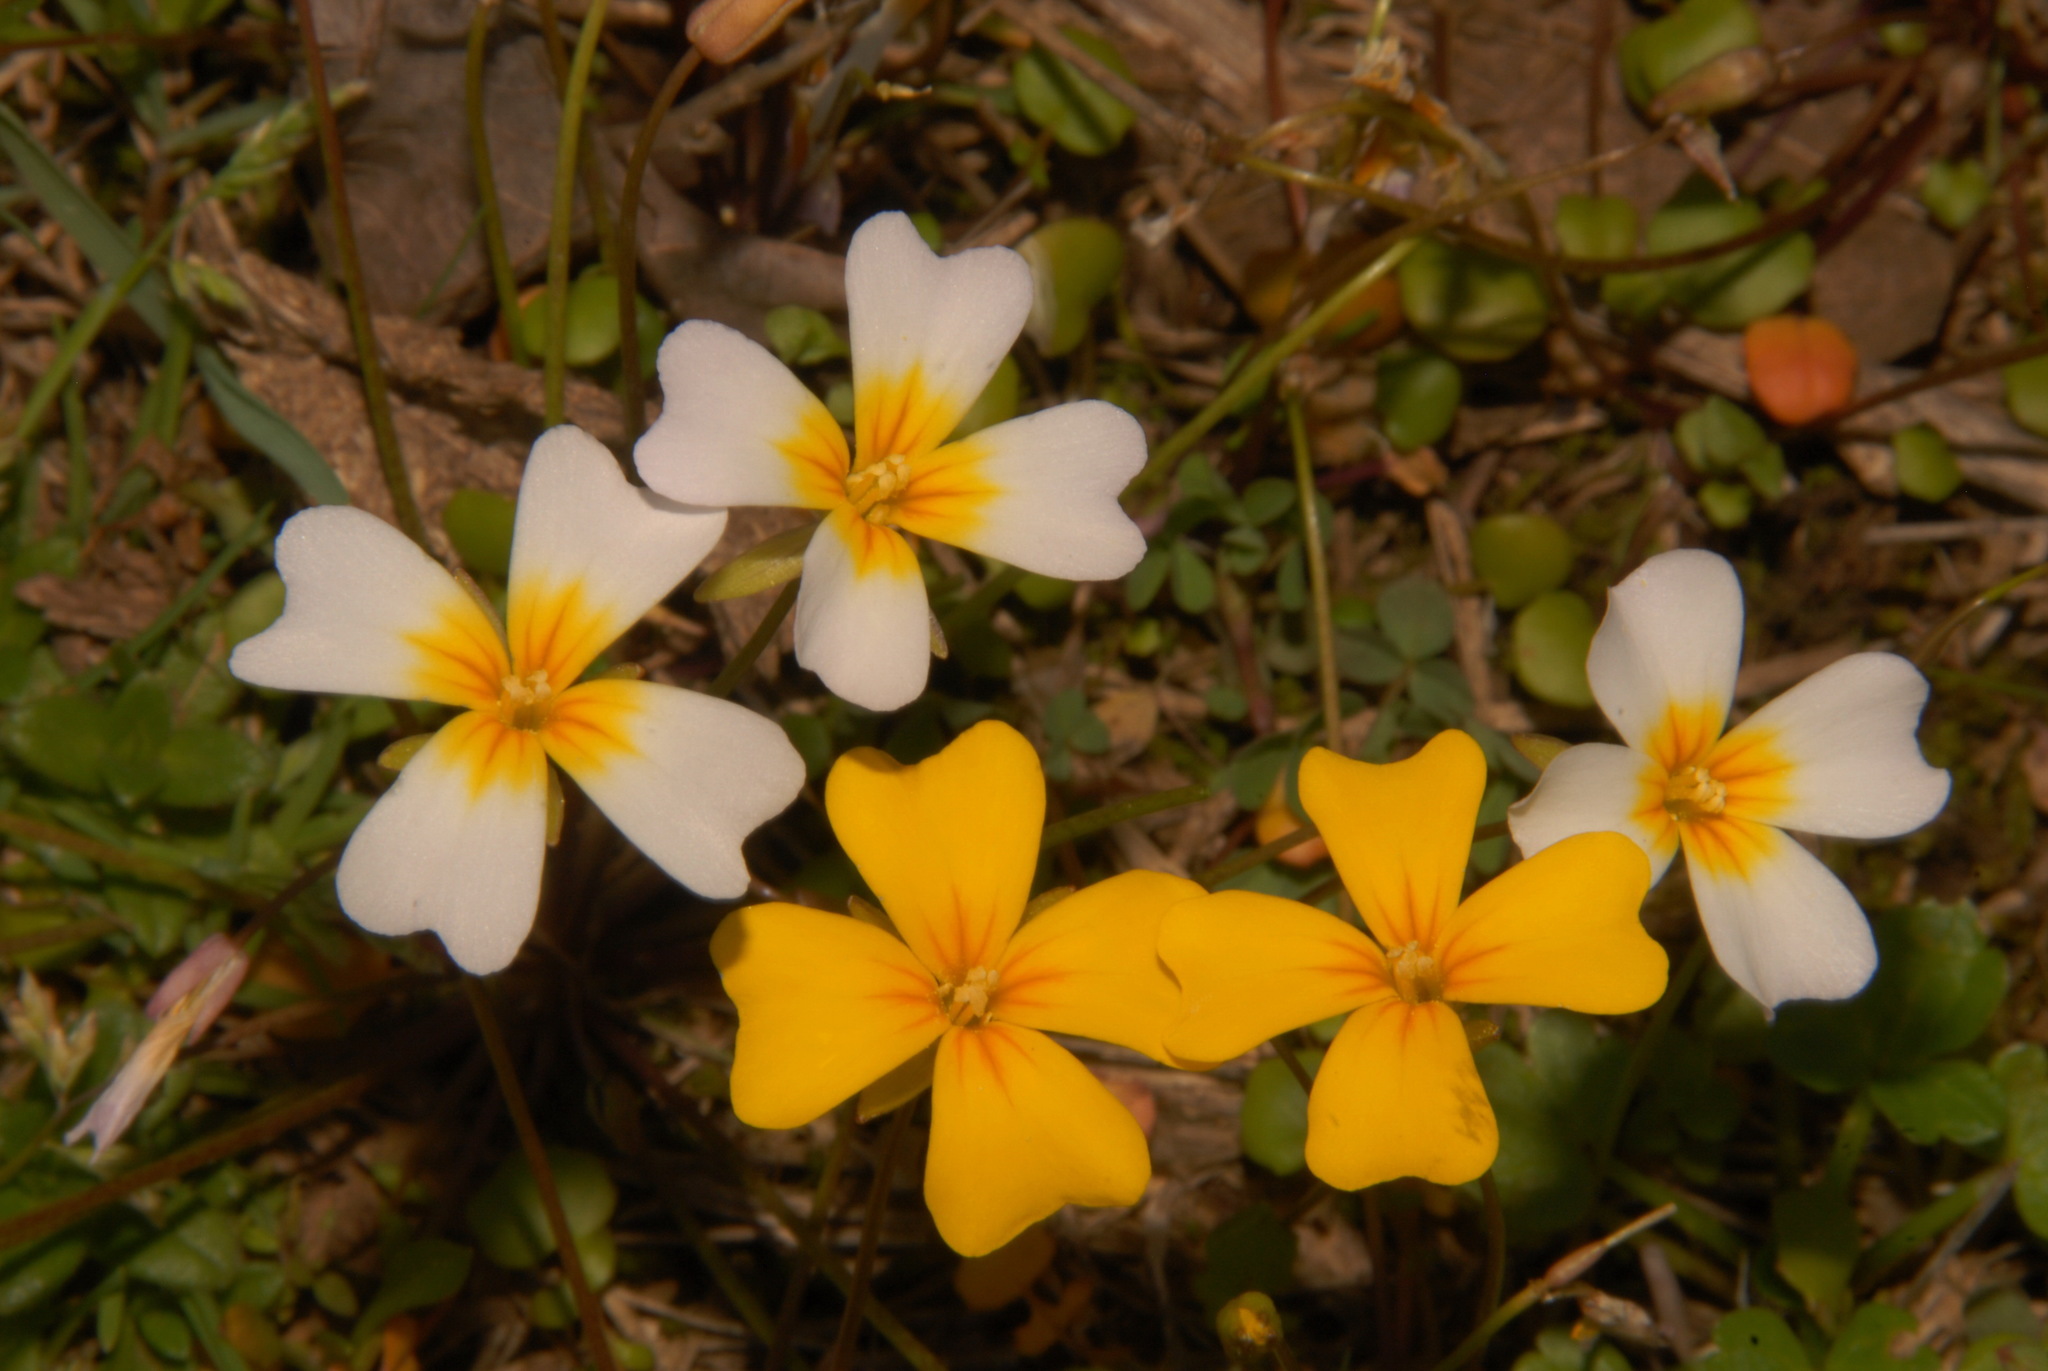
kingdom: Plantae
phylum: Tracheophyta
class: Magnoliopsida
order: Brassicales
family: Brassicaceae
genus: Leavenworthia
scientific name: Leavenworthia alabamica
